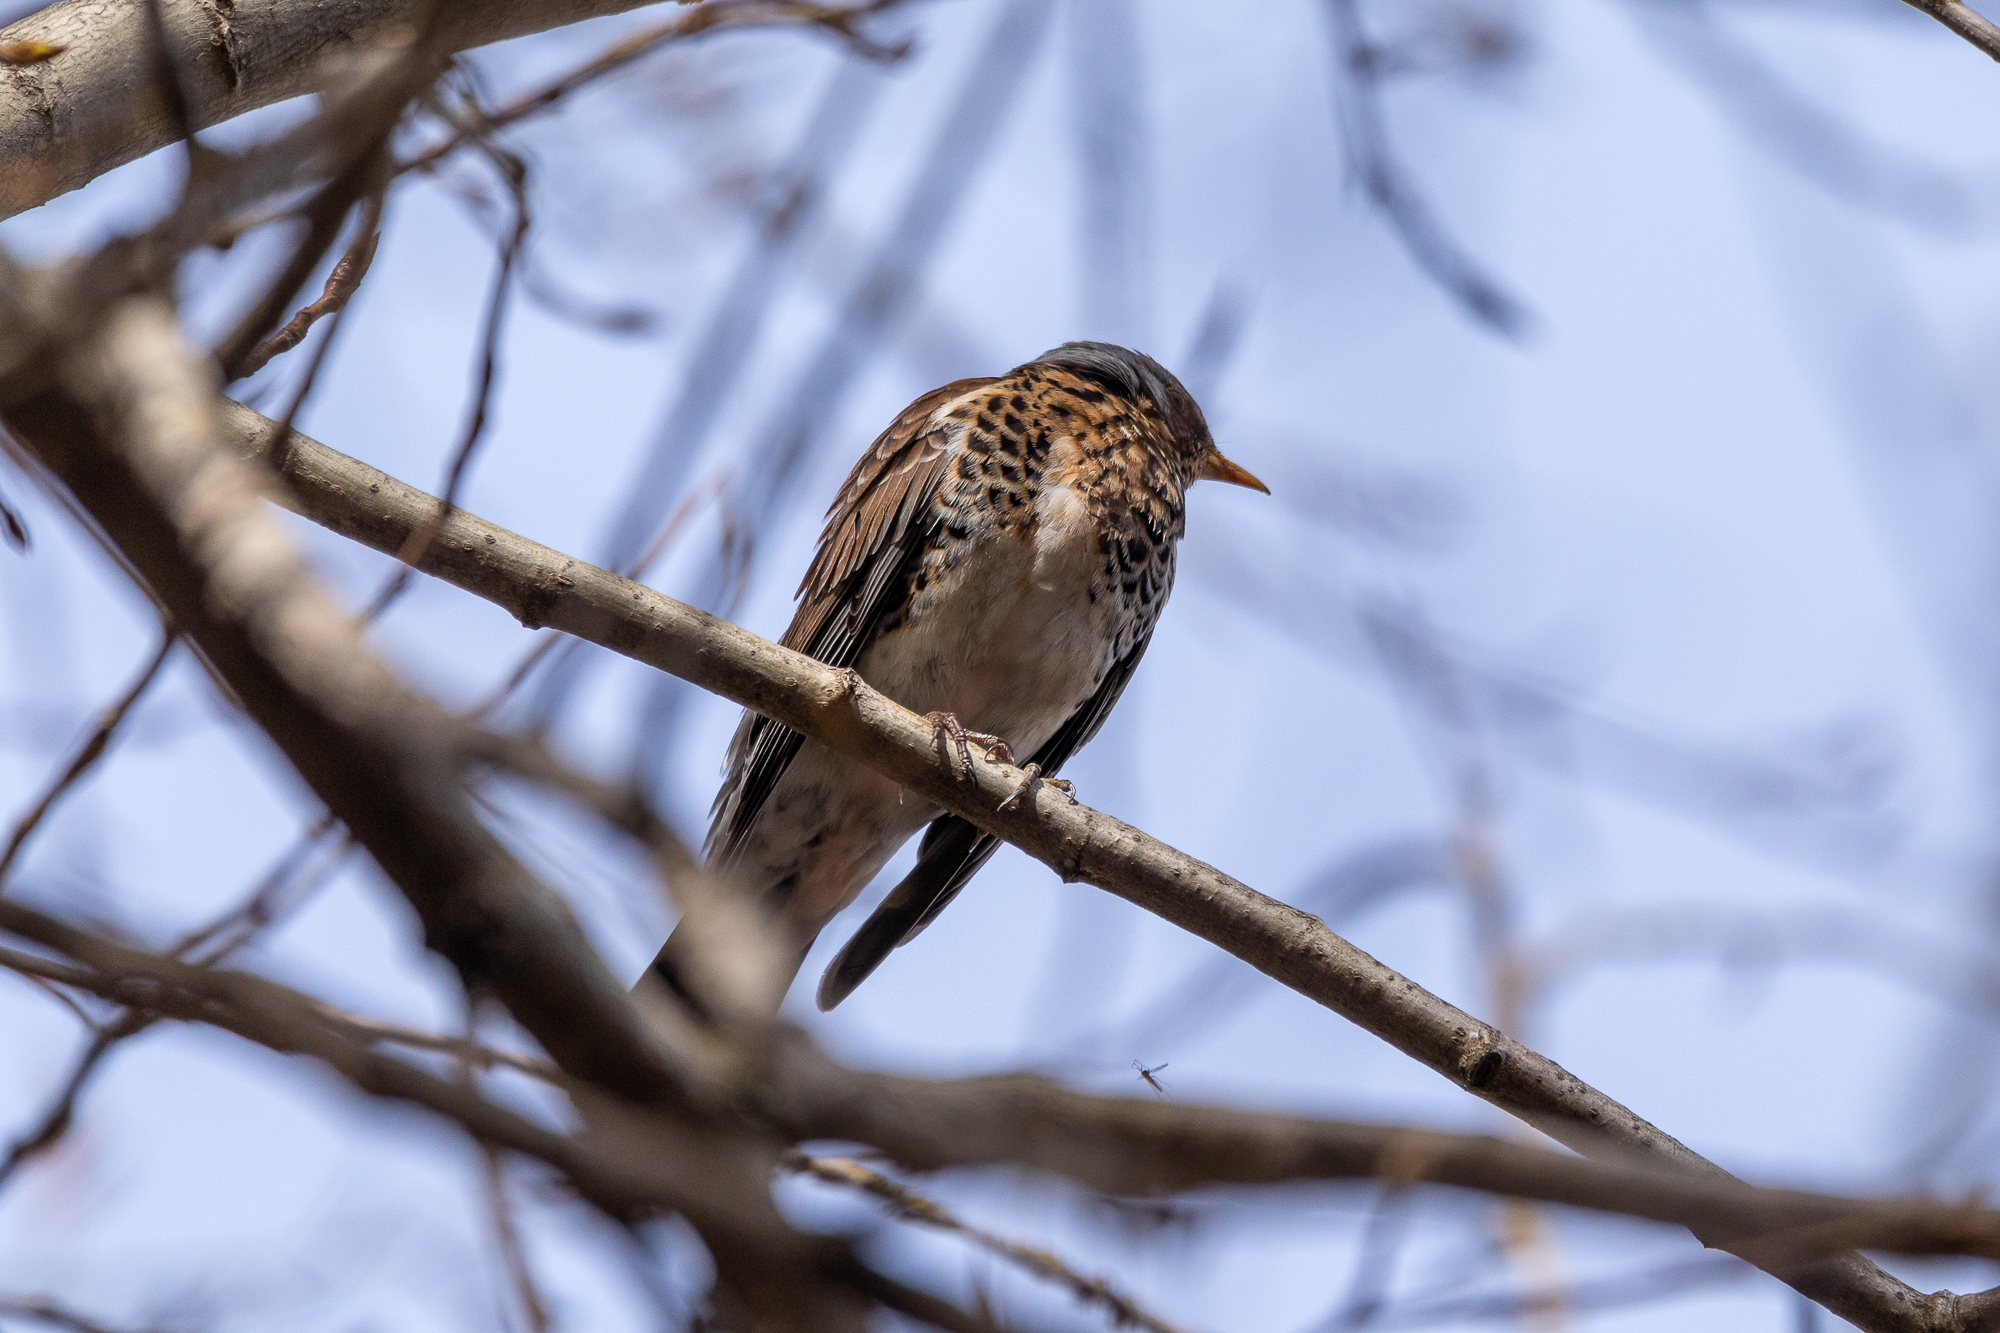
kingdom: Animalia
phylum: Chordata
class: Aves
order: Passeriformes
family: Turdidae
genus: Turdus
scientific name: Turdus pilaris
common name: Fieldfare
